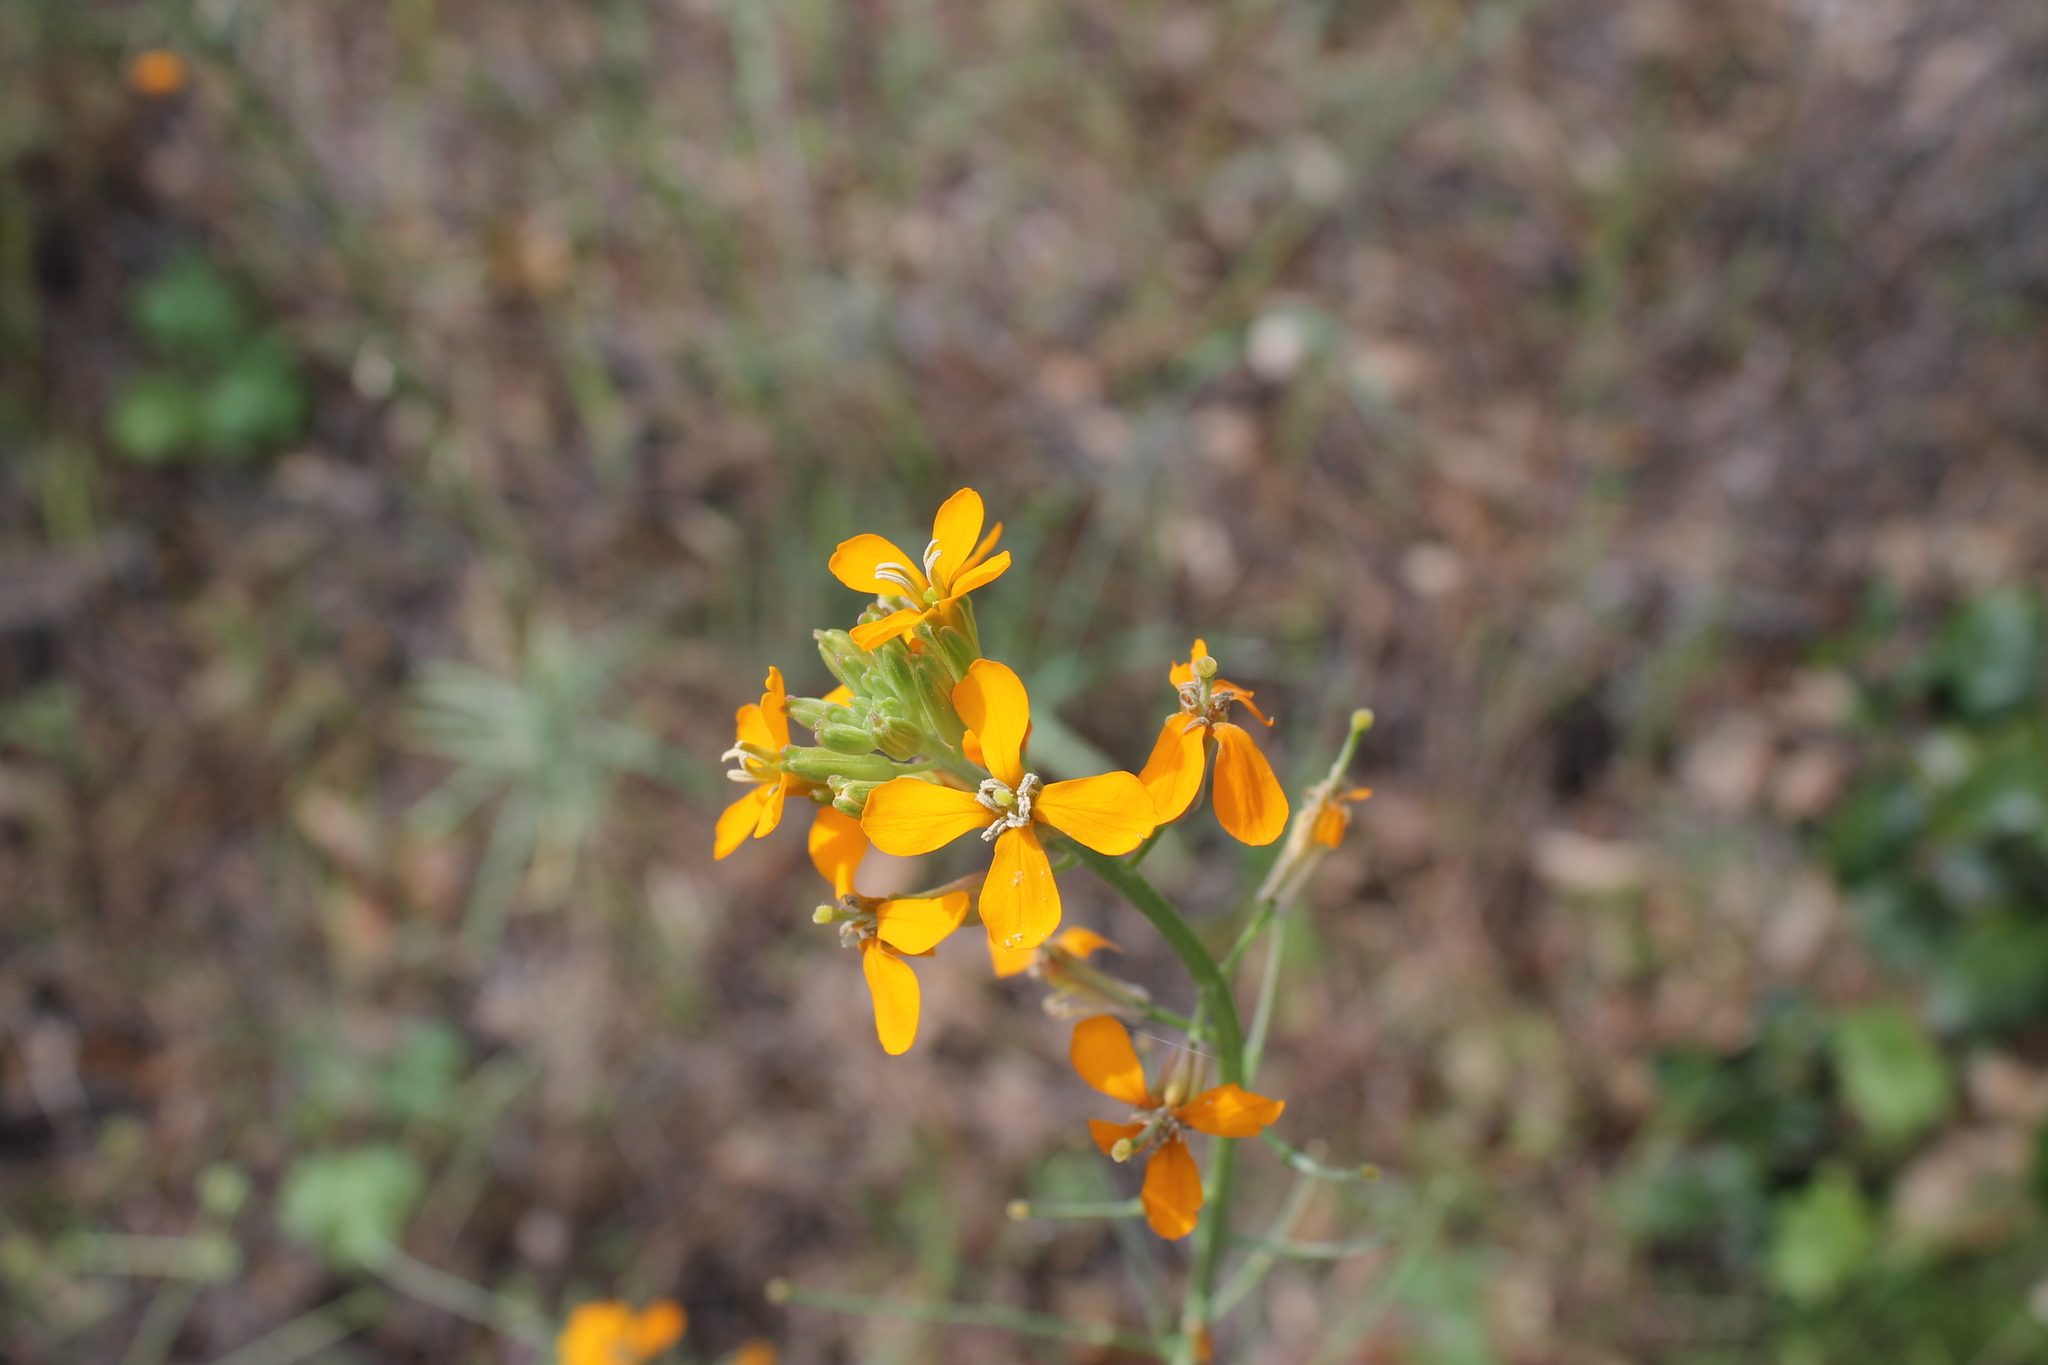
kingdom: Plantae
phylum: Tracheophyta
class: Magnoliopsida
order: Brassicales
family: Brassicaceae
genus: Erysimum
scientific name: Erysimum capitatum
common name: Western wallflower
